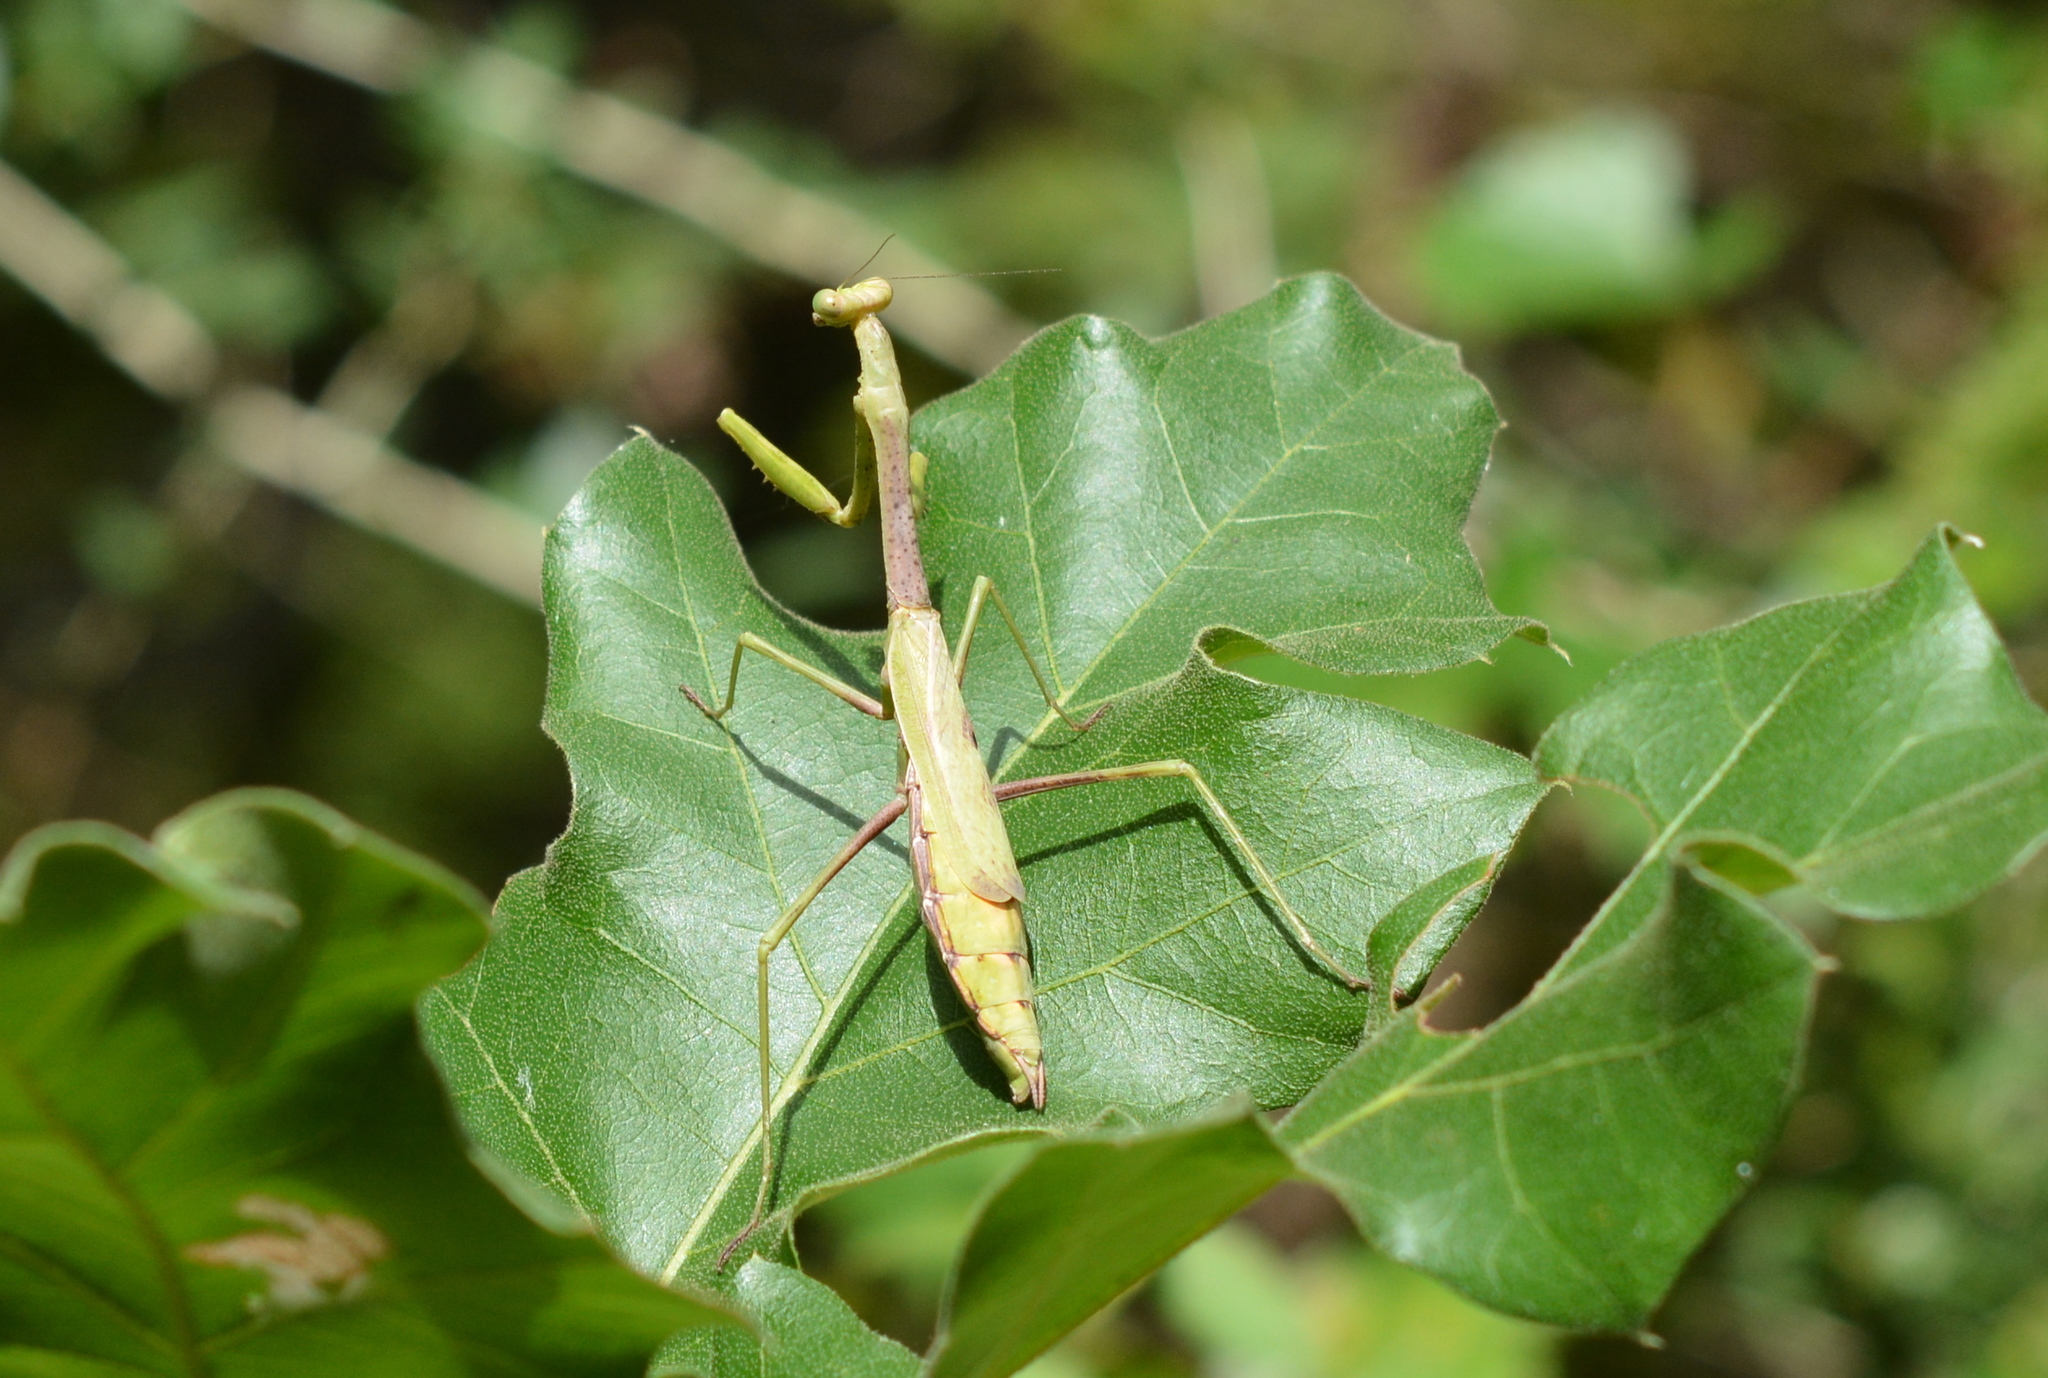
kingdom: Animalia
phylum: Arthropoda
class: Insecta
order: Mantodea
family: Mantidae
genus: Stagmomantis
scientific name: Stagmomantis carolina
